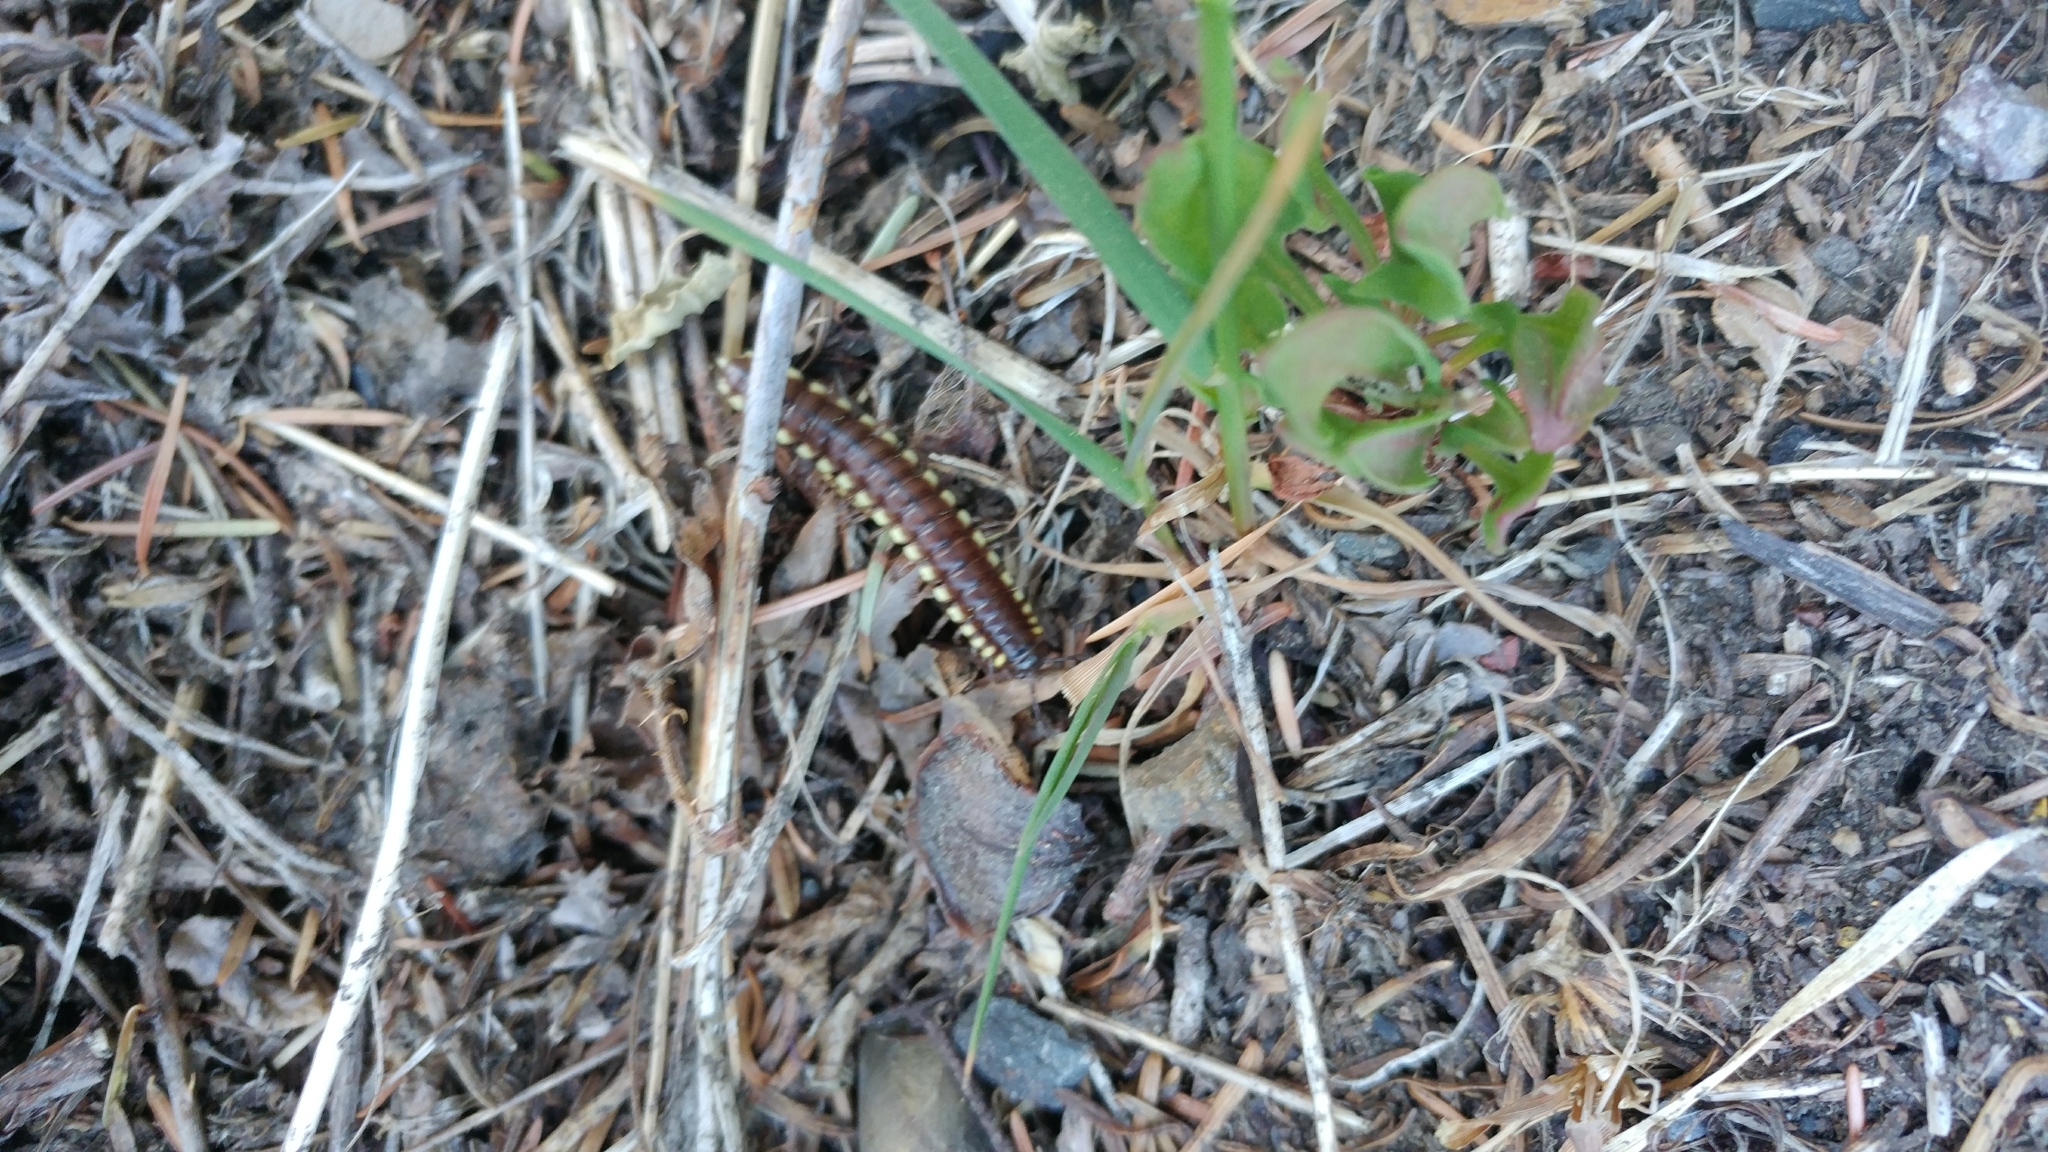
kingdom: Animalia
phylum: Arthropoda
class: Diplopoda
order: Polydesmida
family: Xystodesmidae
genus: Harpaphe
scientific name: Harpaphe haydeniana
